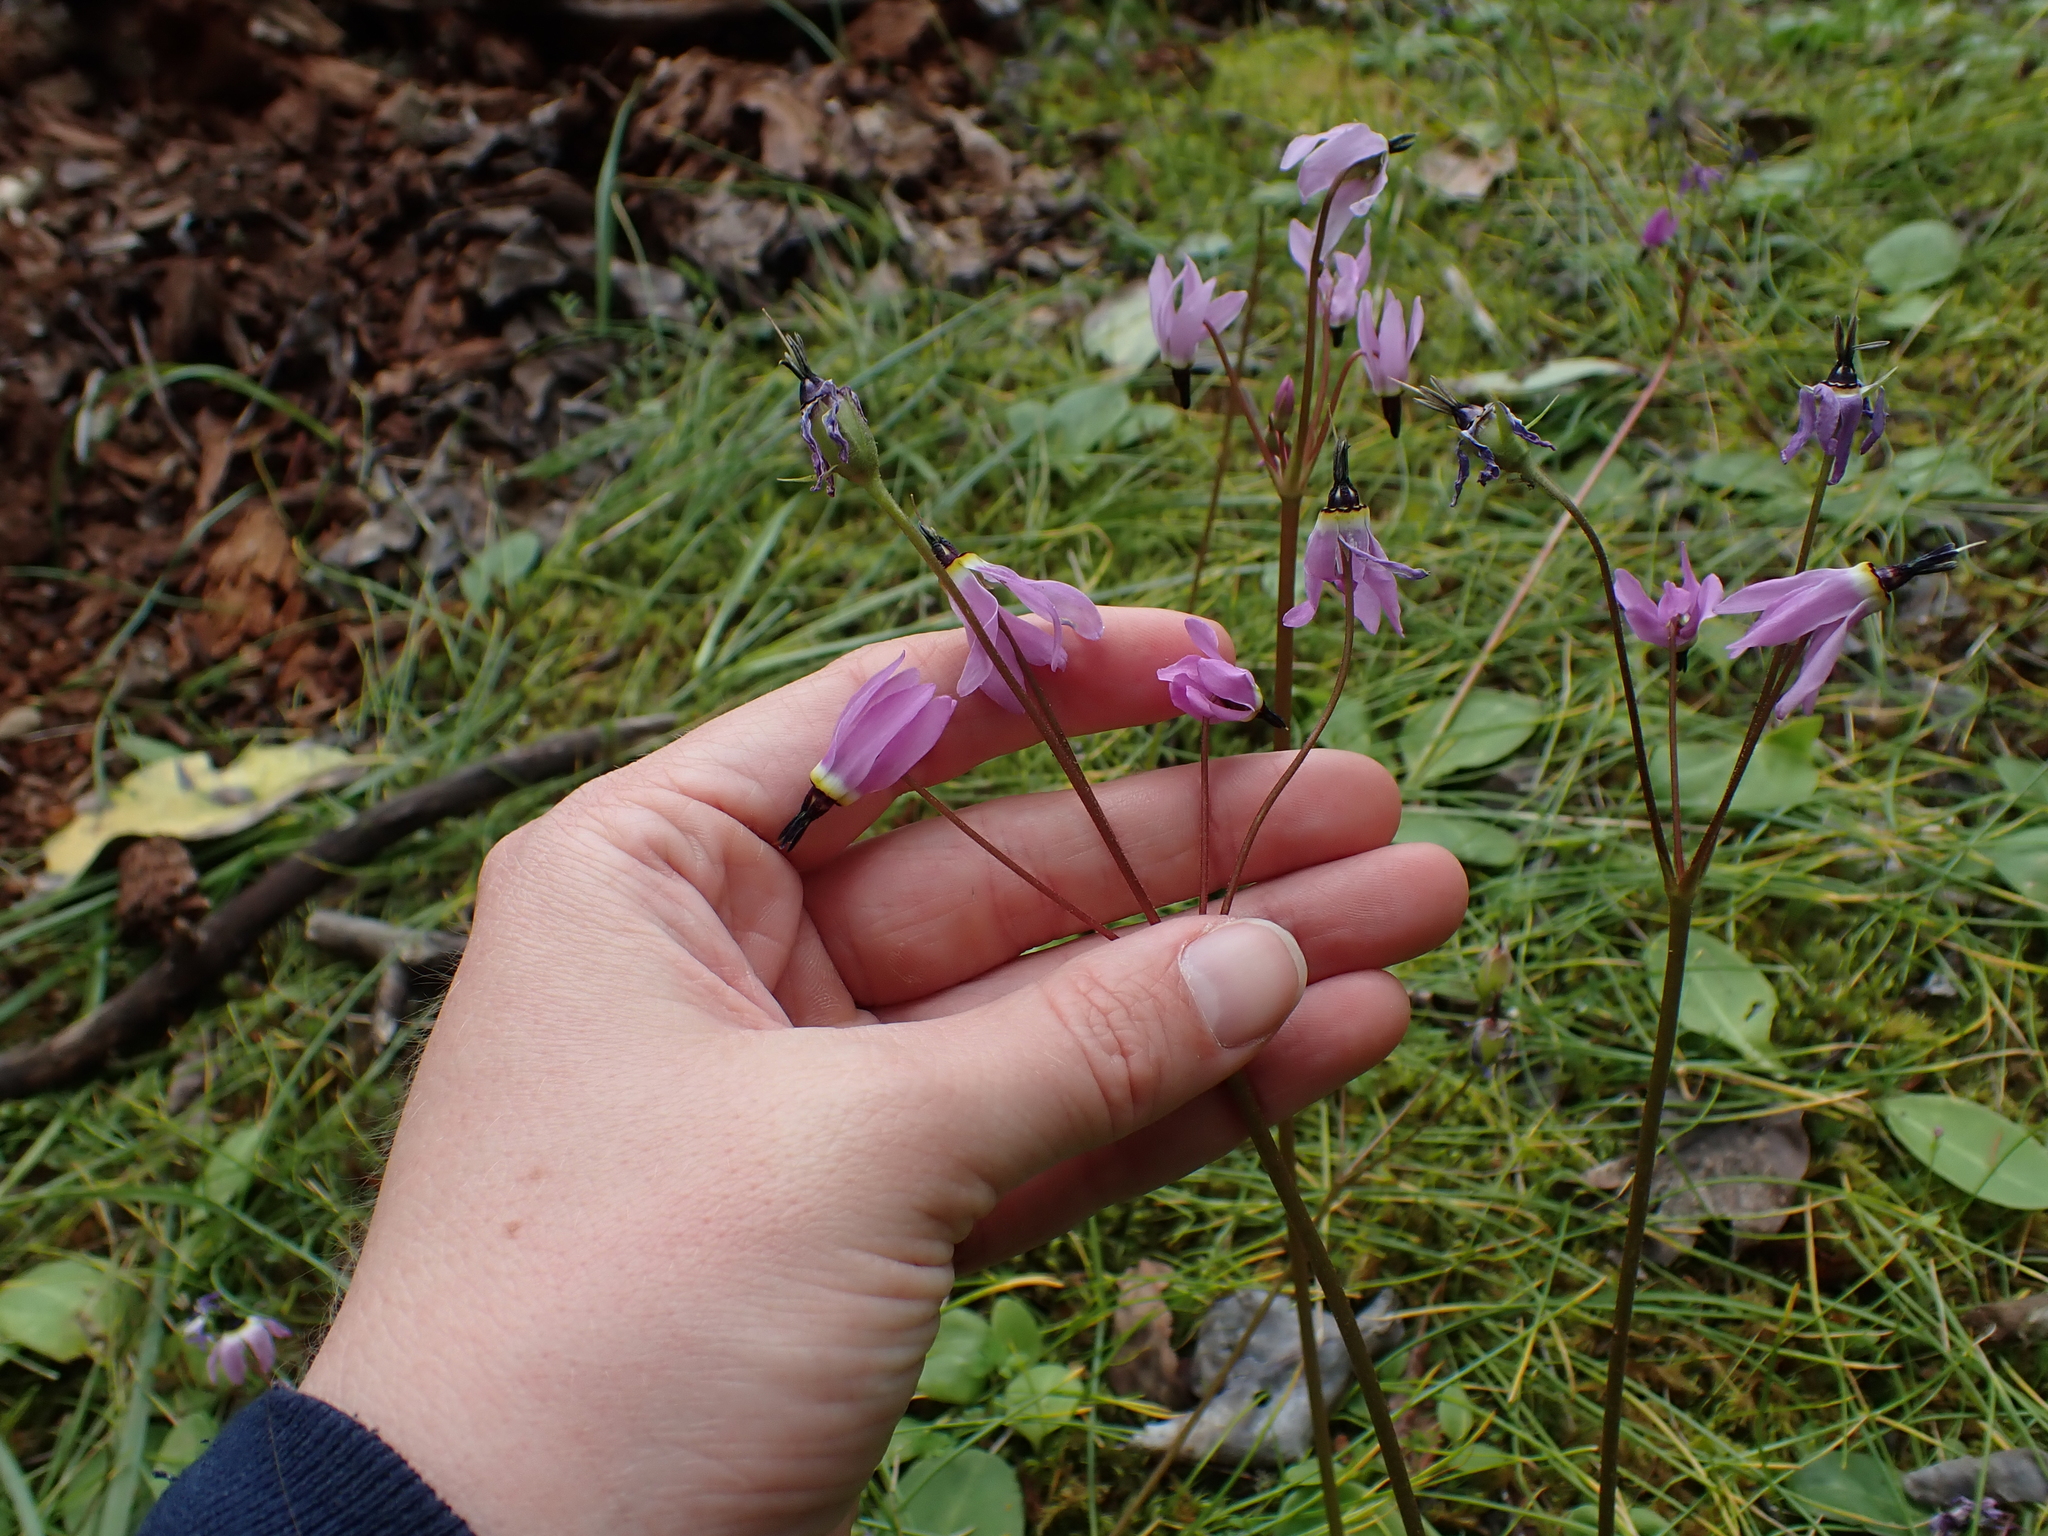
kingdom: Plantae
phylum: Tracheophyta
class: Magnoliopsida
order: Ericales
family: Primulaceae
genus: Dodecatheon
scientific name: Dodecatheon hendersonii
